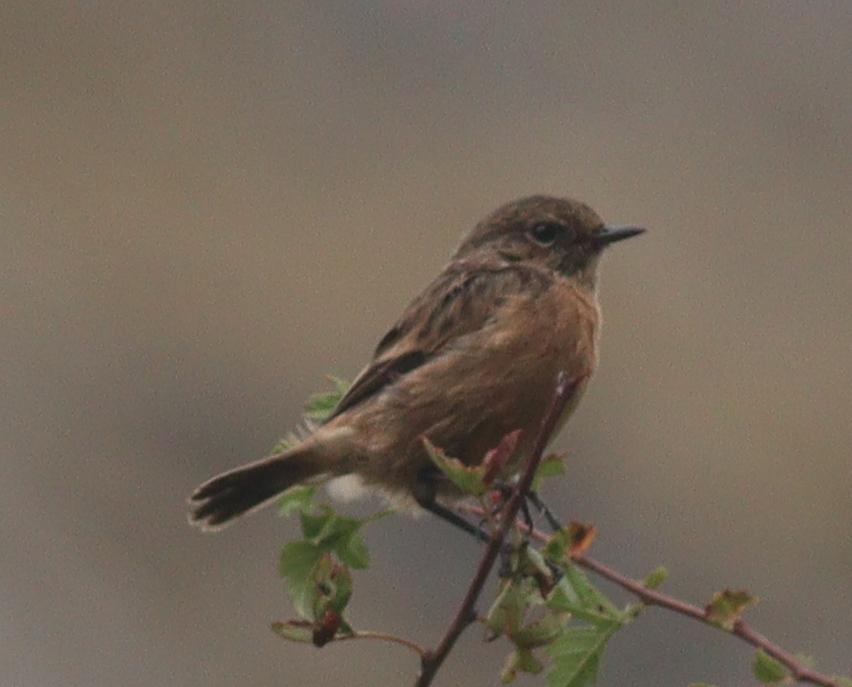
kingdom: Animalia
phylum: Chordata
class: Aves
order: Passeriformes
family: Muscicapidae
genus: Saxicola
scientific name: Saxicola rubicola
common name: European stonechat
